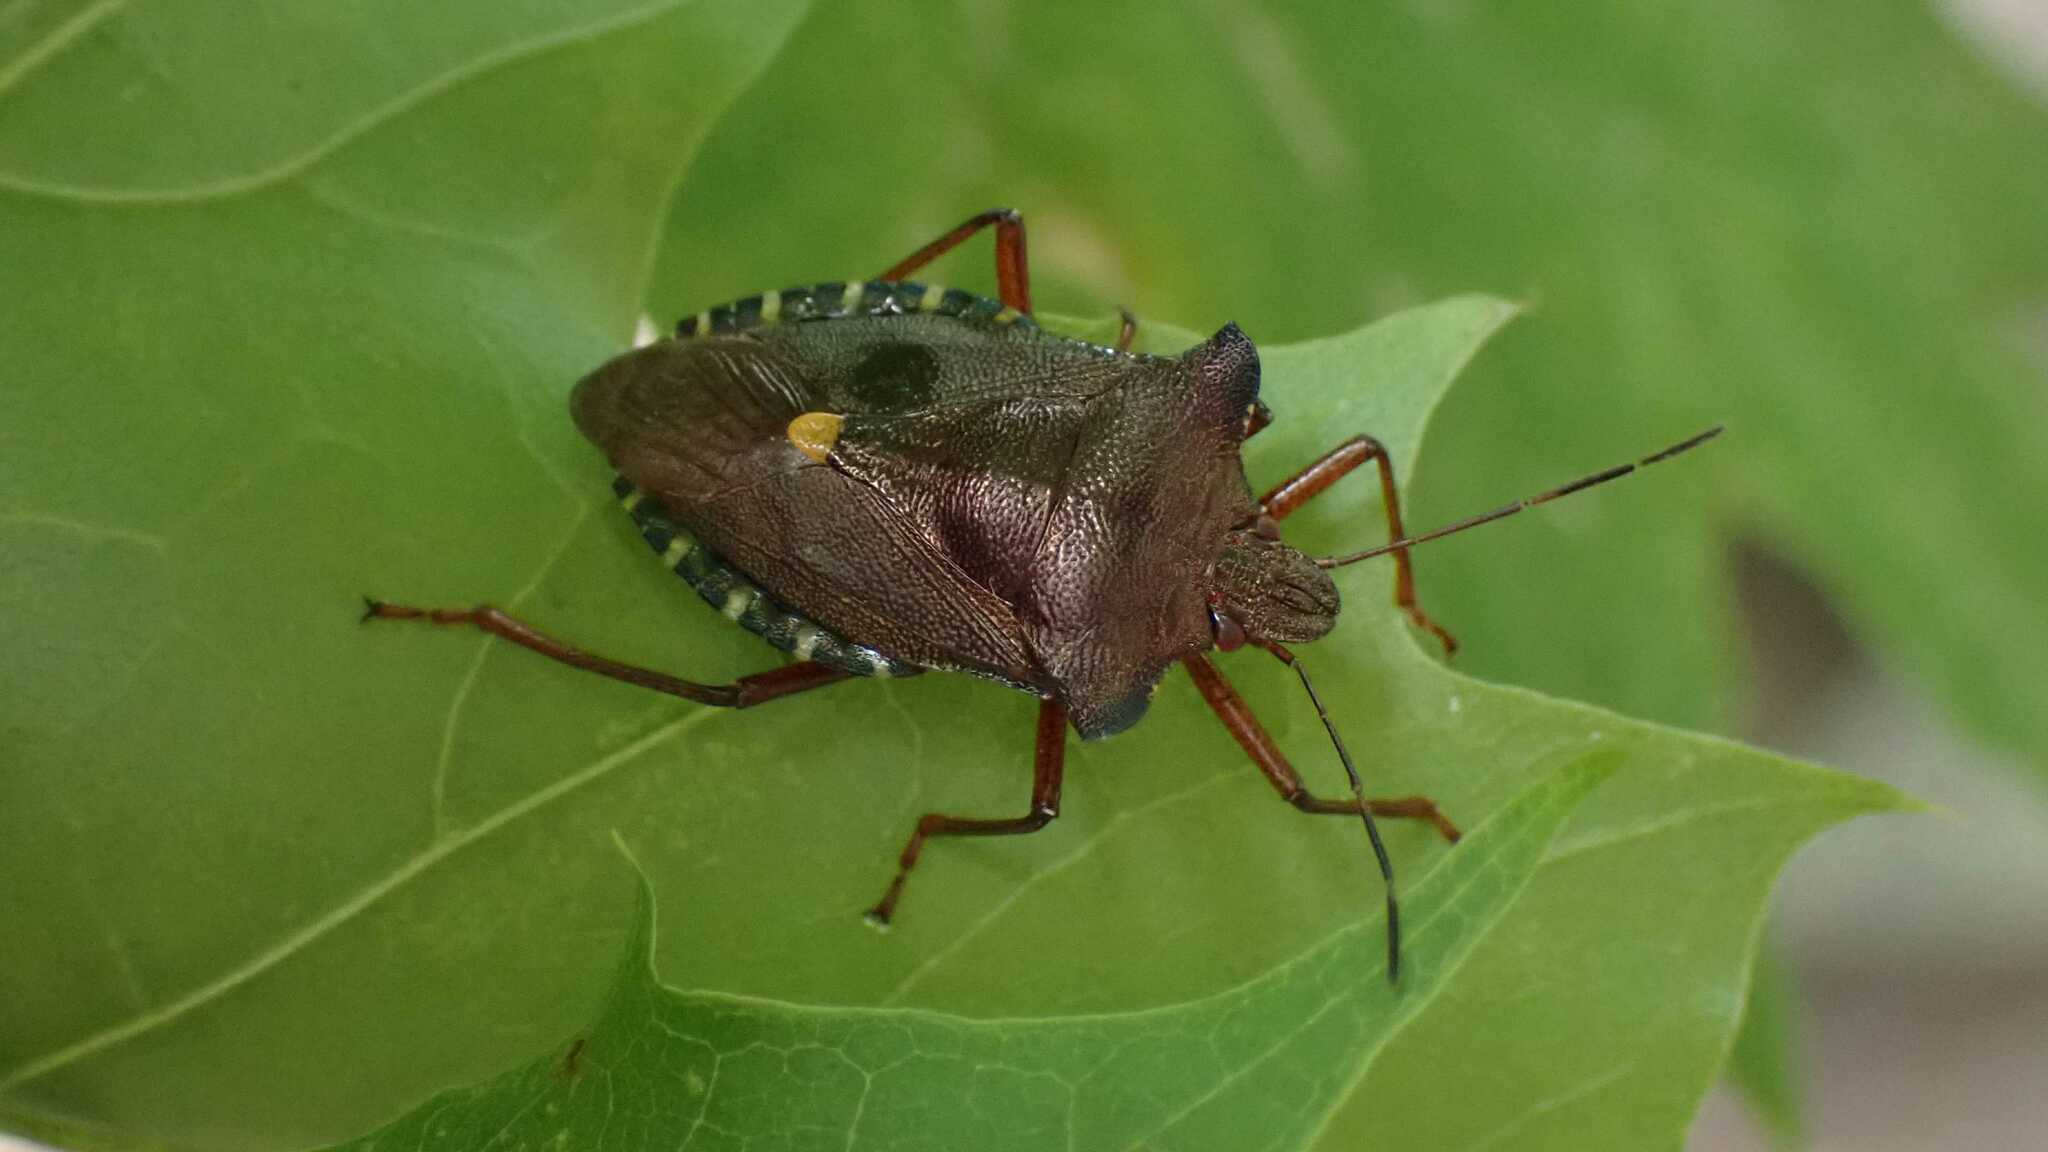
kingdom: Animalia
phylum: Arthropoda
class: Insecta
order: Hemiptera
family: Pentatomidae
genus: Pentatoma
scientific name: Pentatoma rufipes
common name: Forest bug
